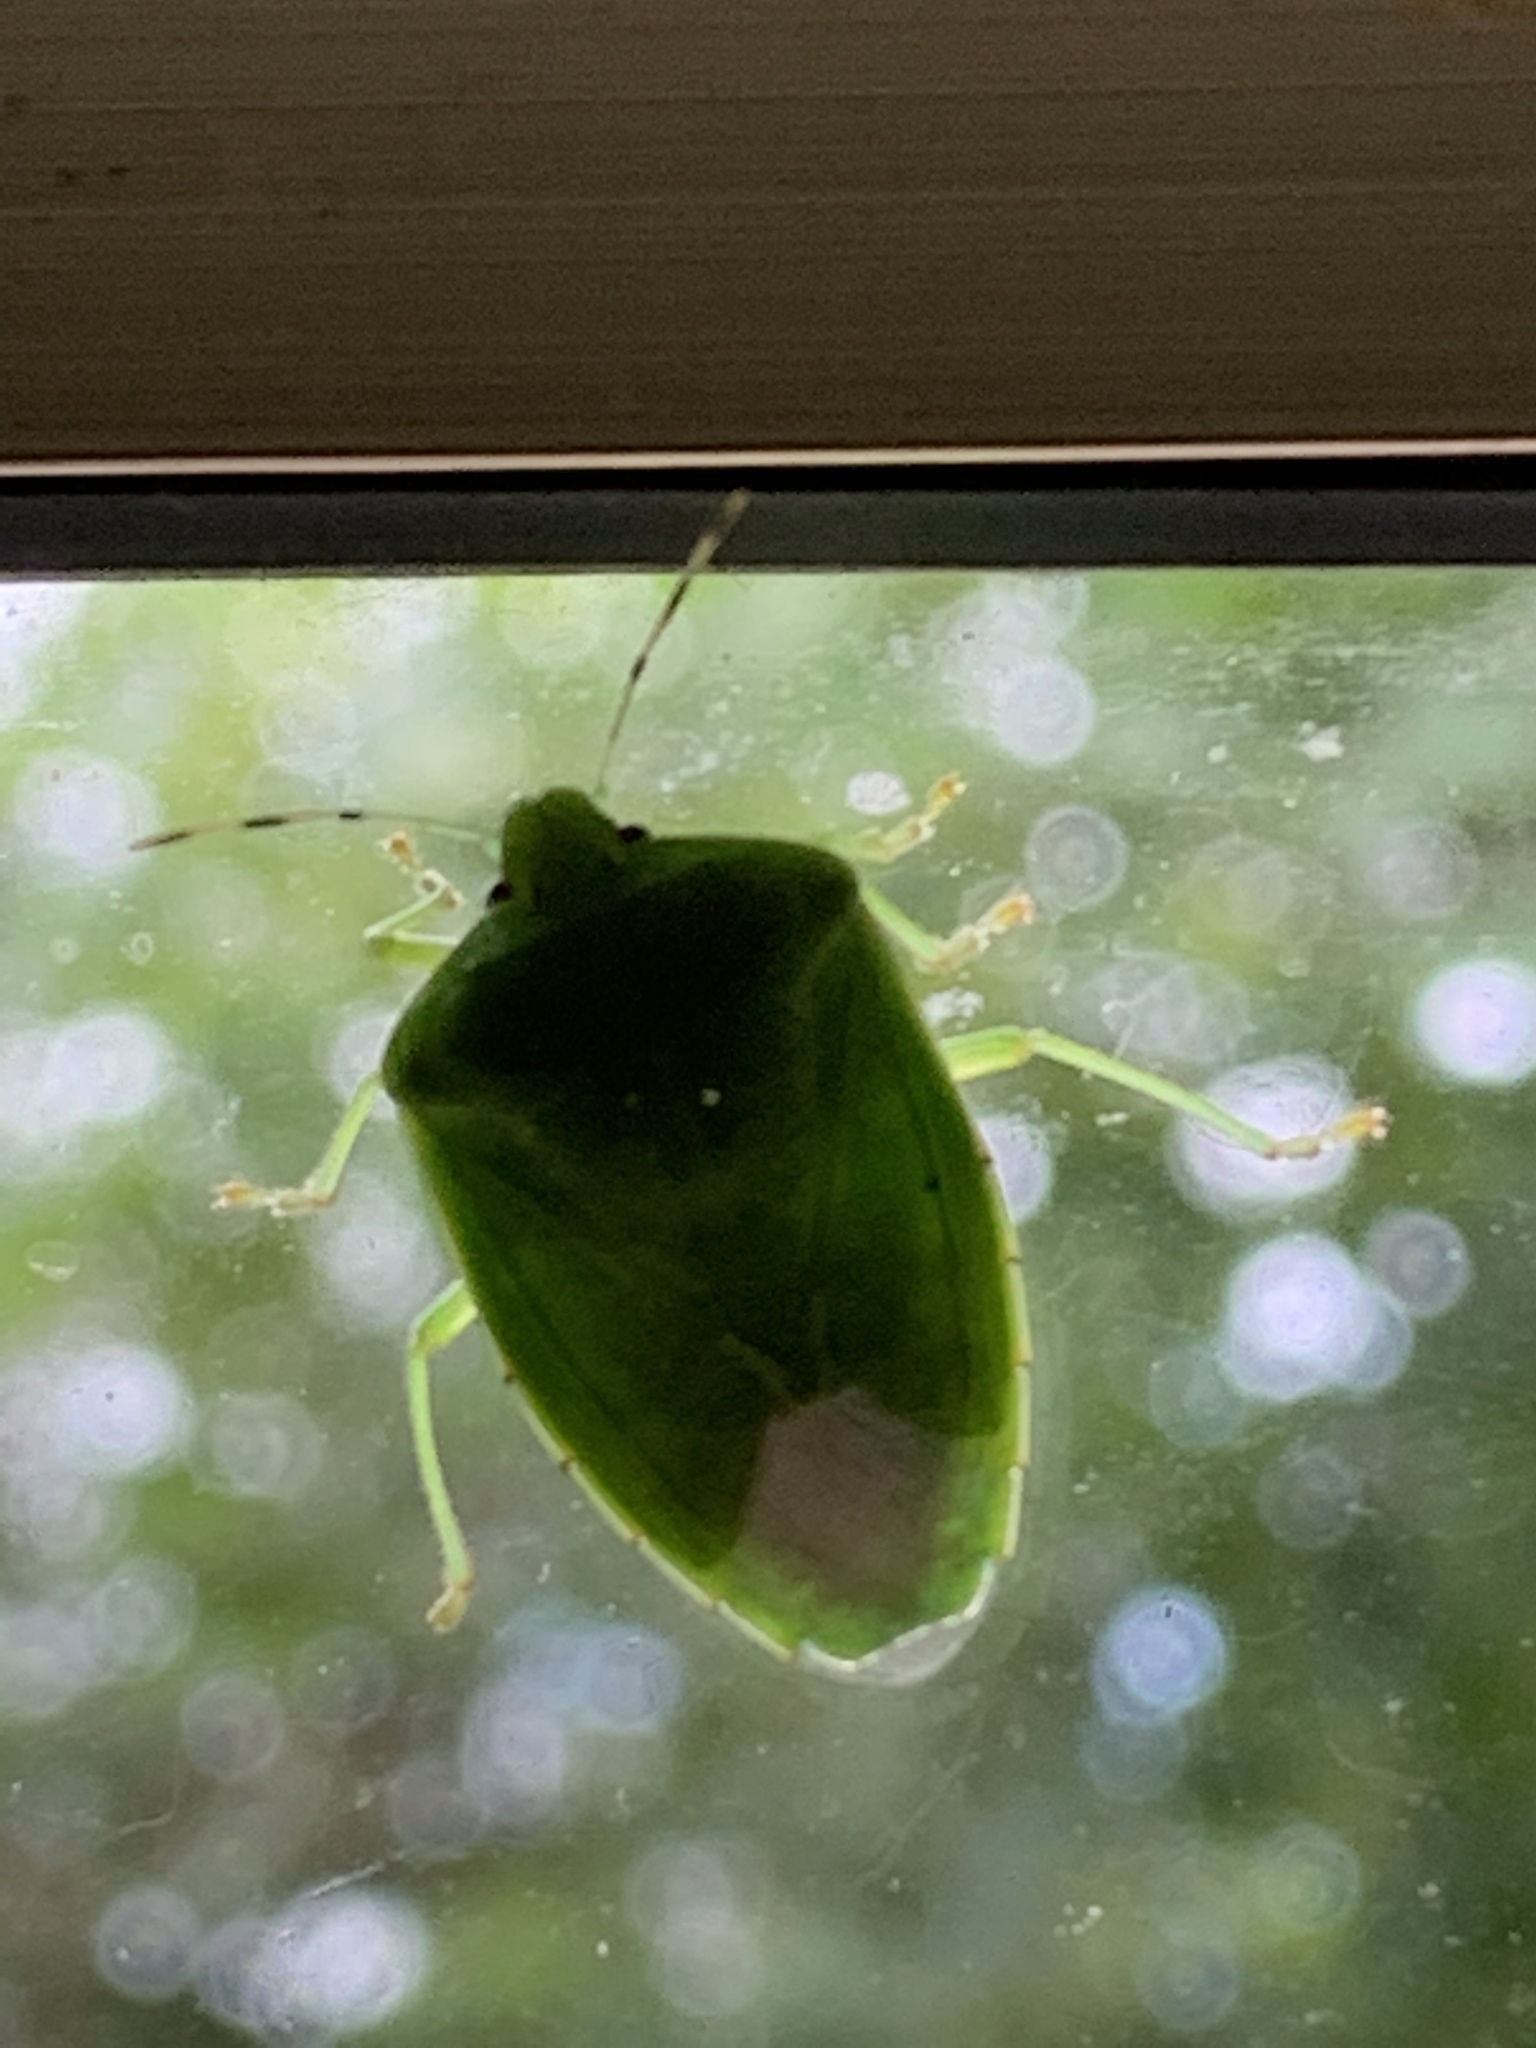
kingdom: Animalia
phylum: Arthropoda
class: Insecta
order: Hemiptera
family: Pentatomidae
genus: Chinavia
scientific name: Chinavia hilaris
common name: Green stink bug
